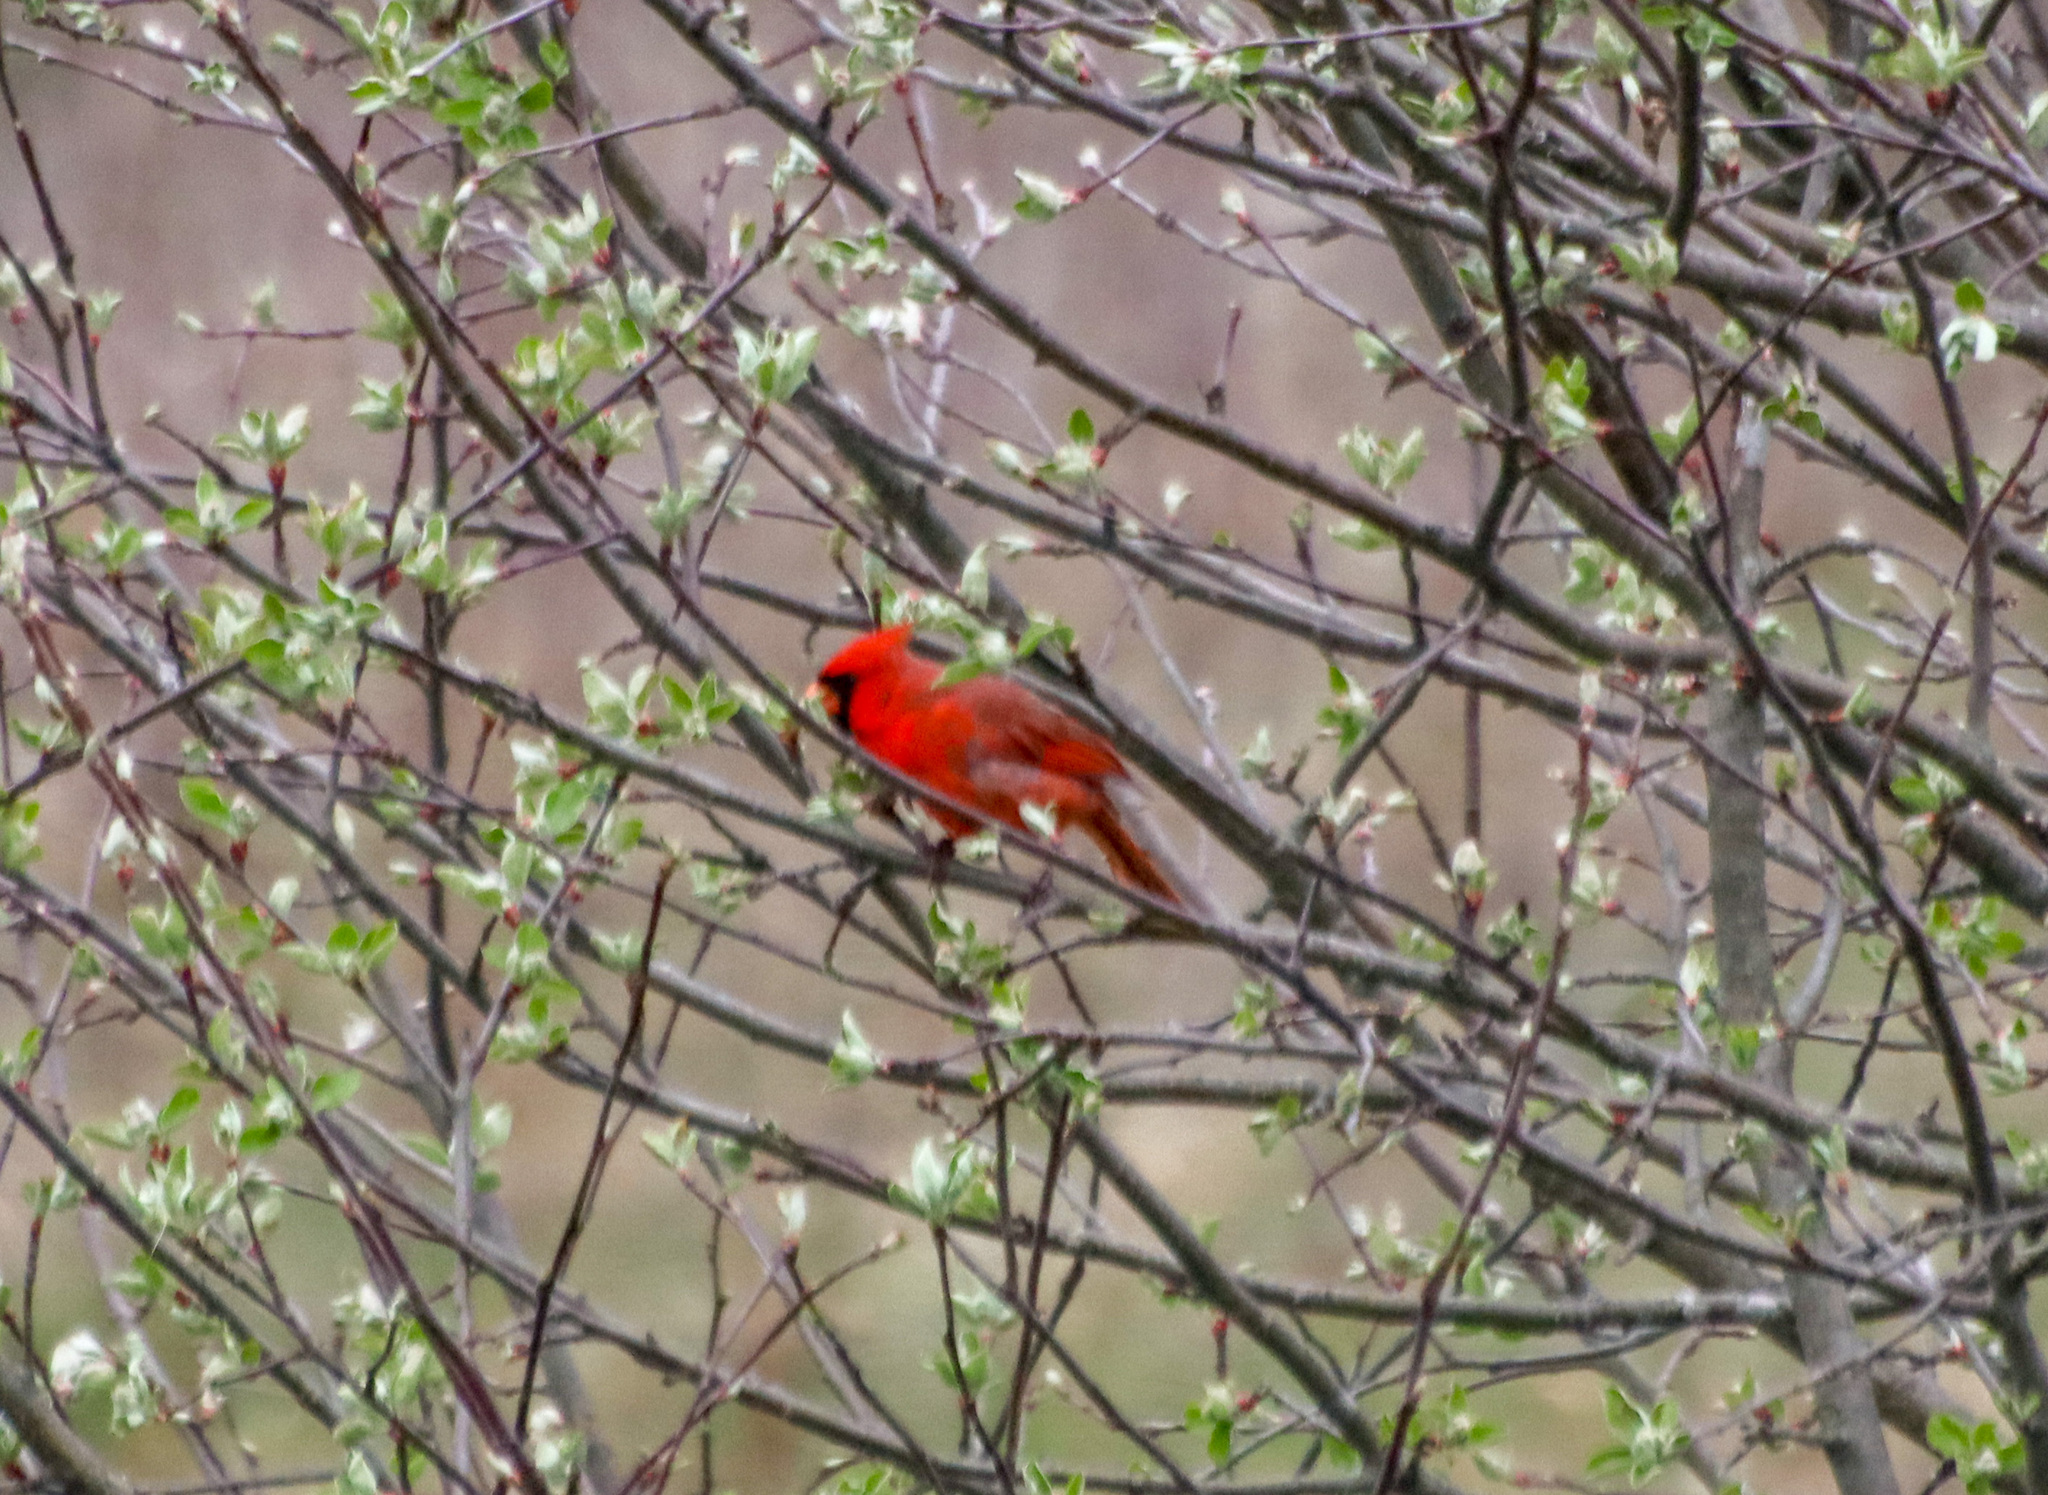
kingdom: Animalia
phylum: Chordata
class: Aves
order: Passeriformes
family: Cardinalidae
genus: Cardinalis
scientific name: Cardinalis cardinalis
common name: Northern cardinal
